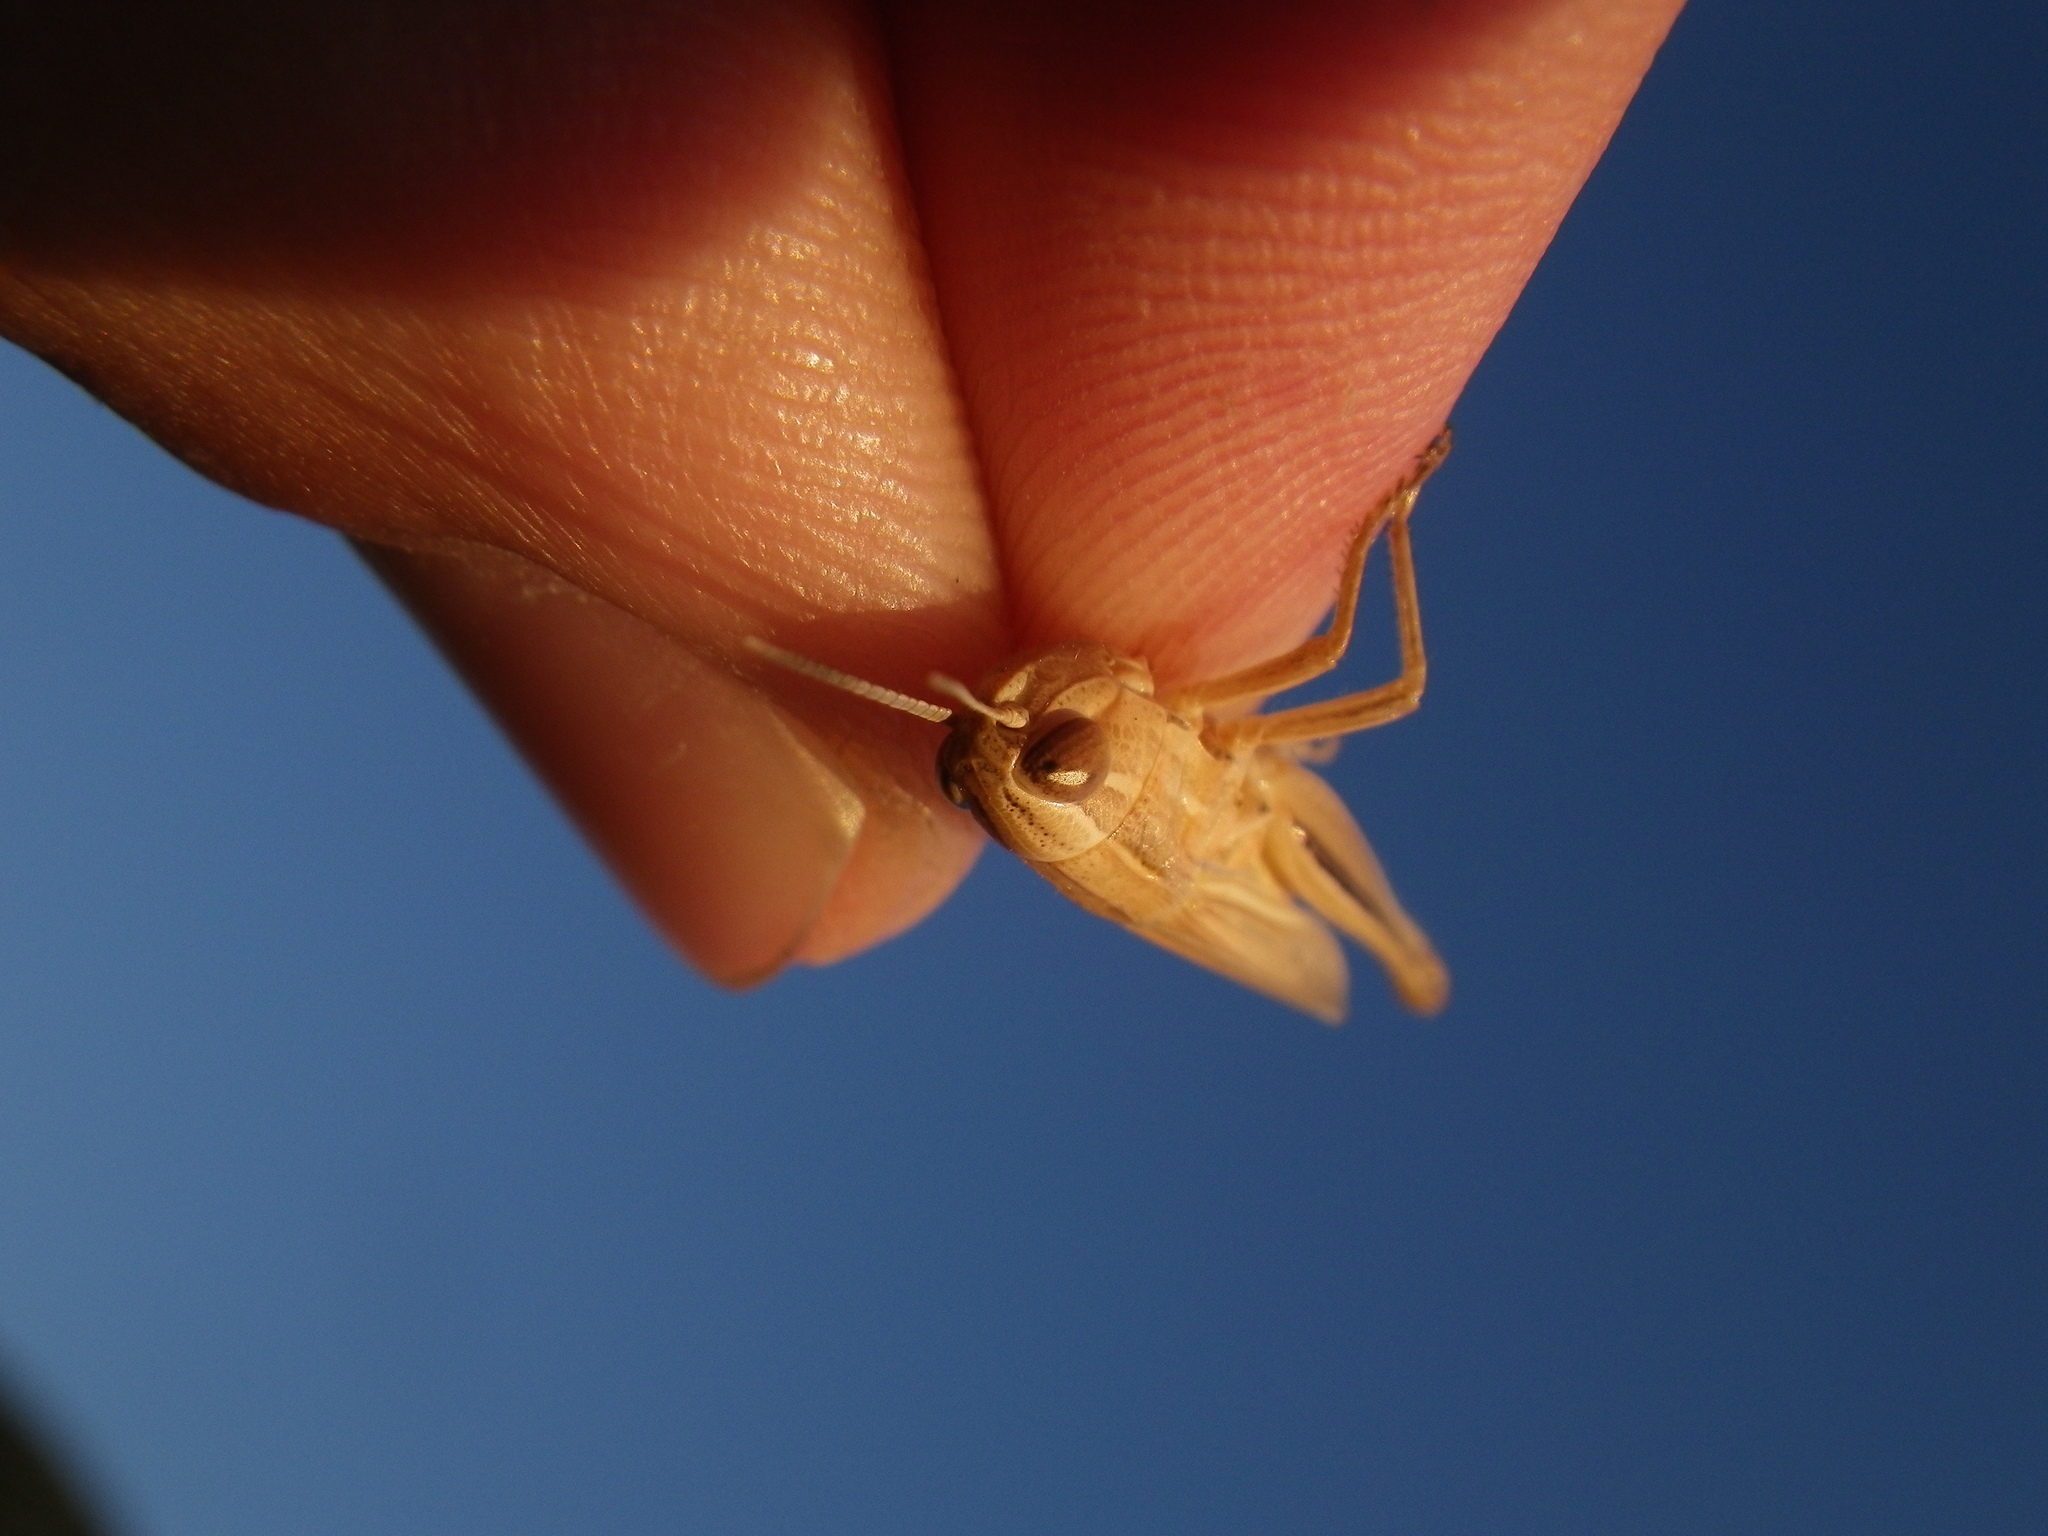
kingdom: Animalia
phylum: Arthropoda
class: Insecta
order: Orthoptera
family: Acrididae
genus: Euchorthippus
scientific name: Euchorthippus elegantulus
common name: Elegant straw grasshopper
